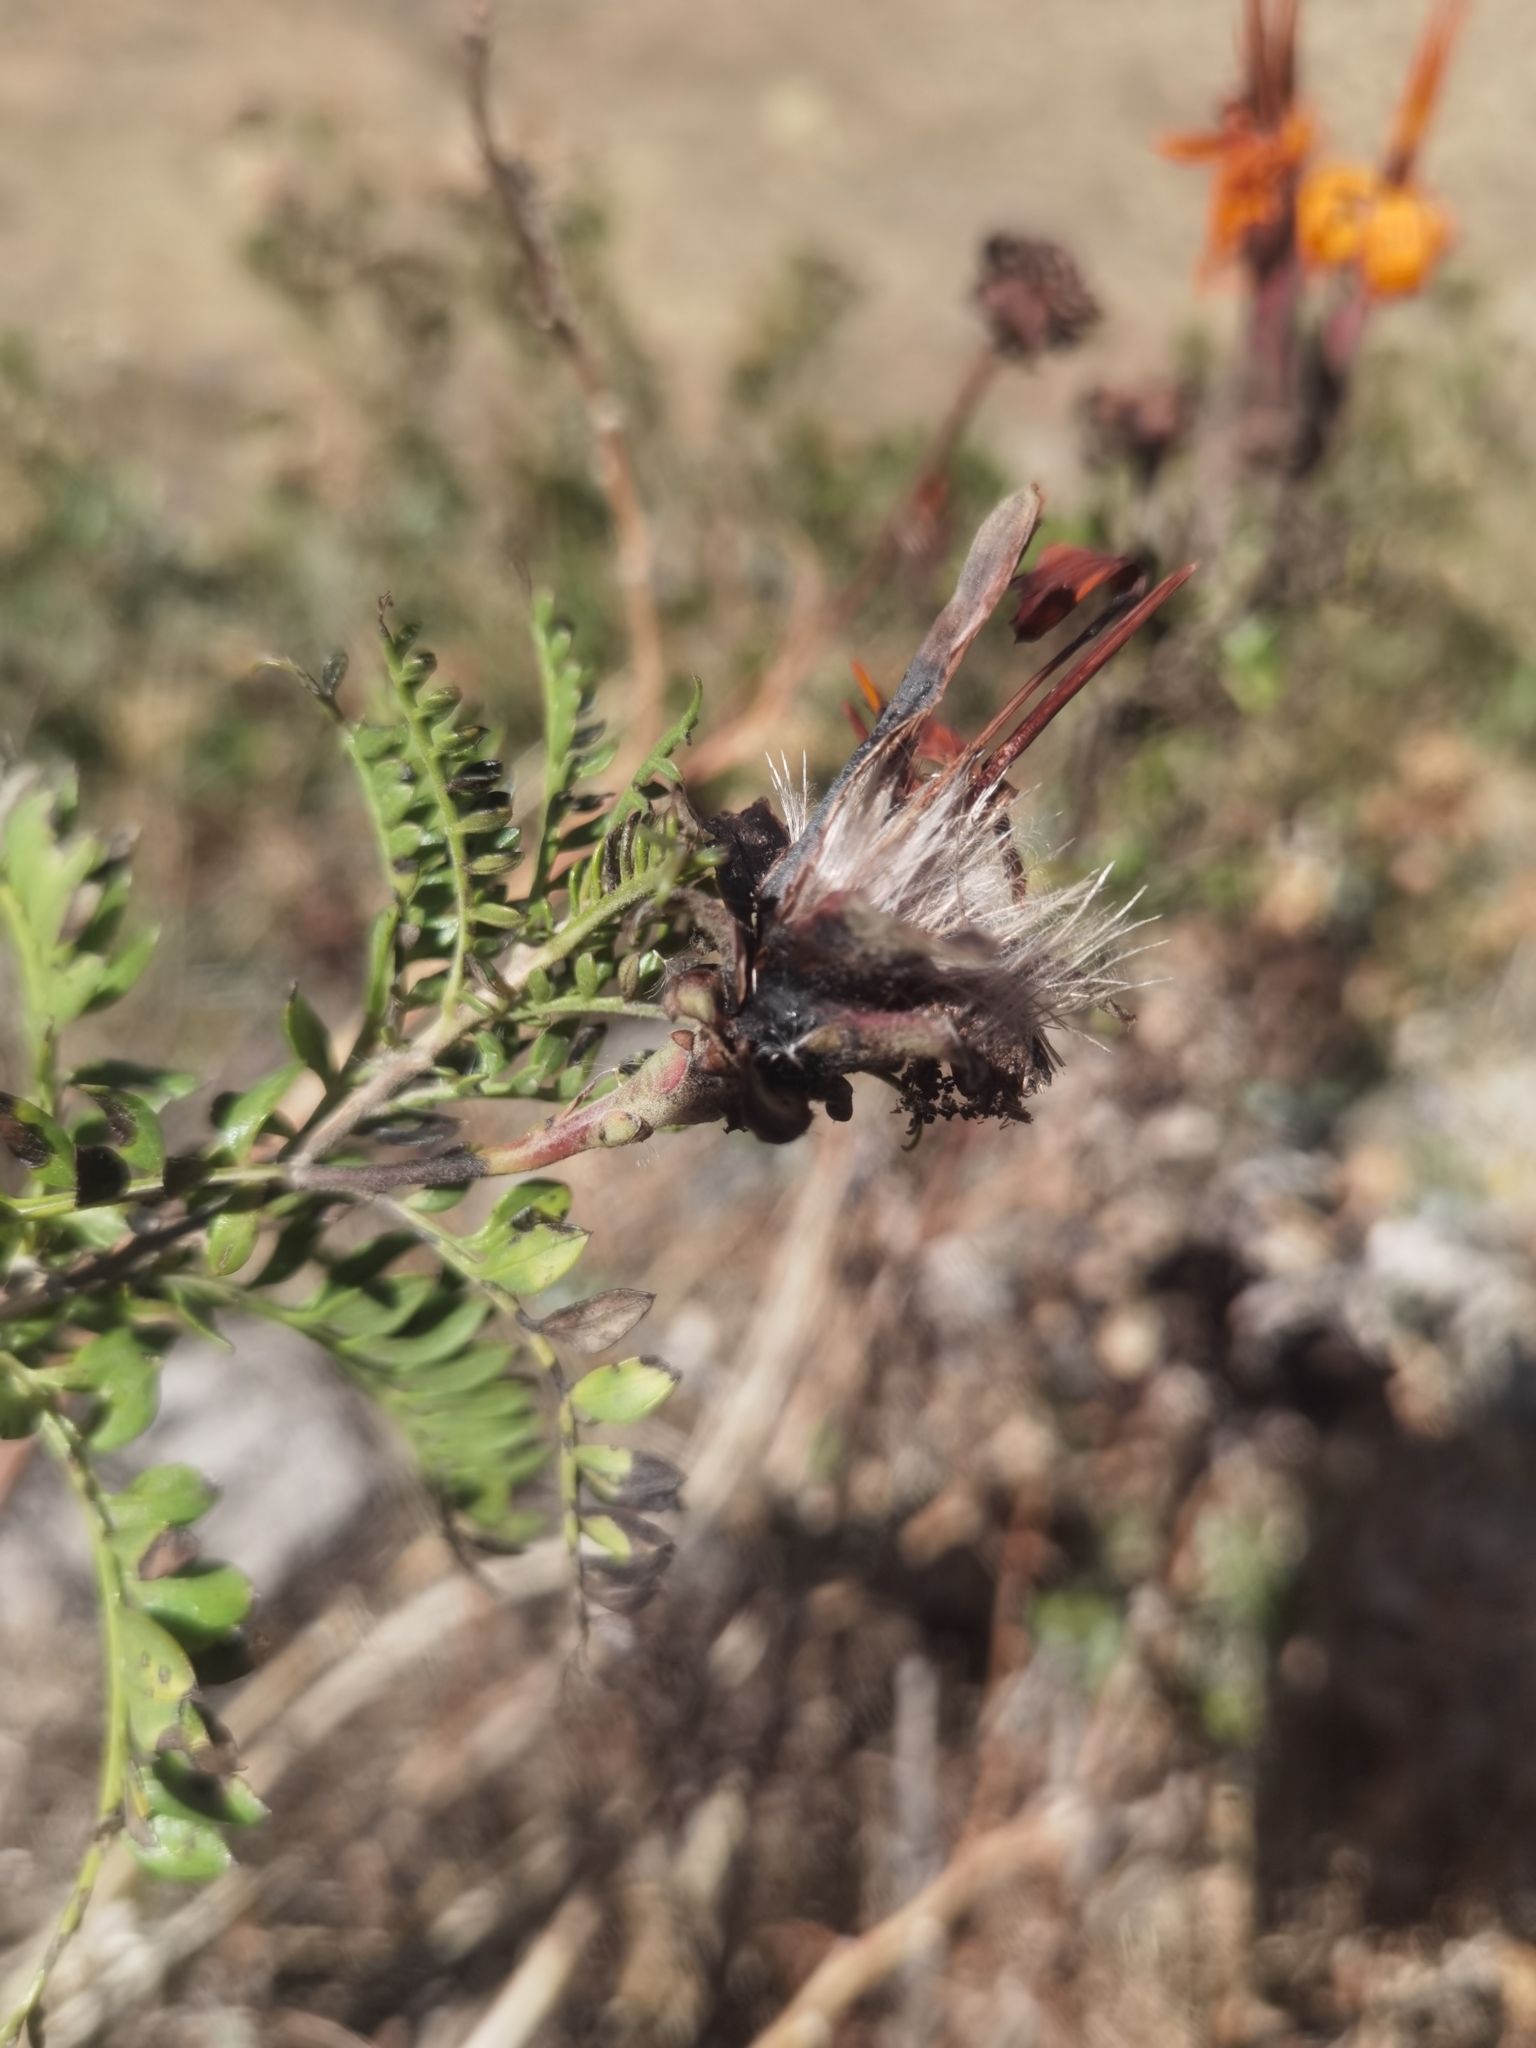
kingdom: Plantae
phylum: Tracheophyta
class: Magnoliopsida
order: Asterales
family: Asteraceae
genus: Mutisia
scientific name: Mutisia acuminata
